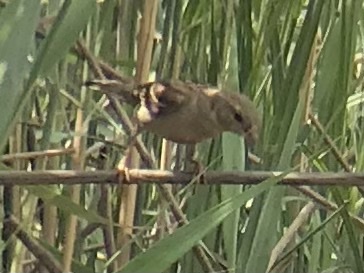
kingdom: Animalia
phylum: Chordata
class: Aves
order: Passeriformes
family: Passeridae
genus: Passer
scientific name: Passer domesticus
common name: House sparrow
